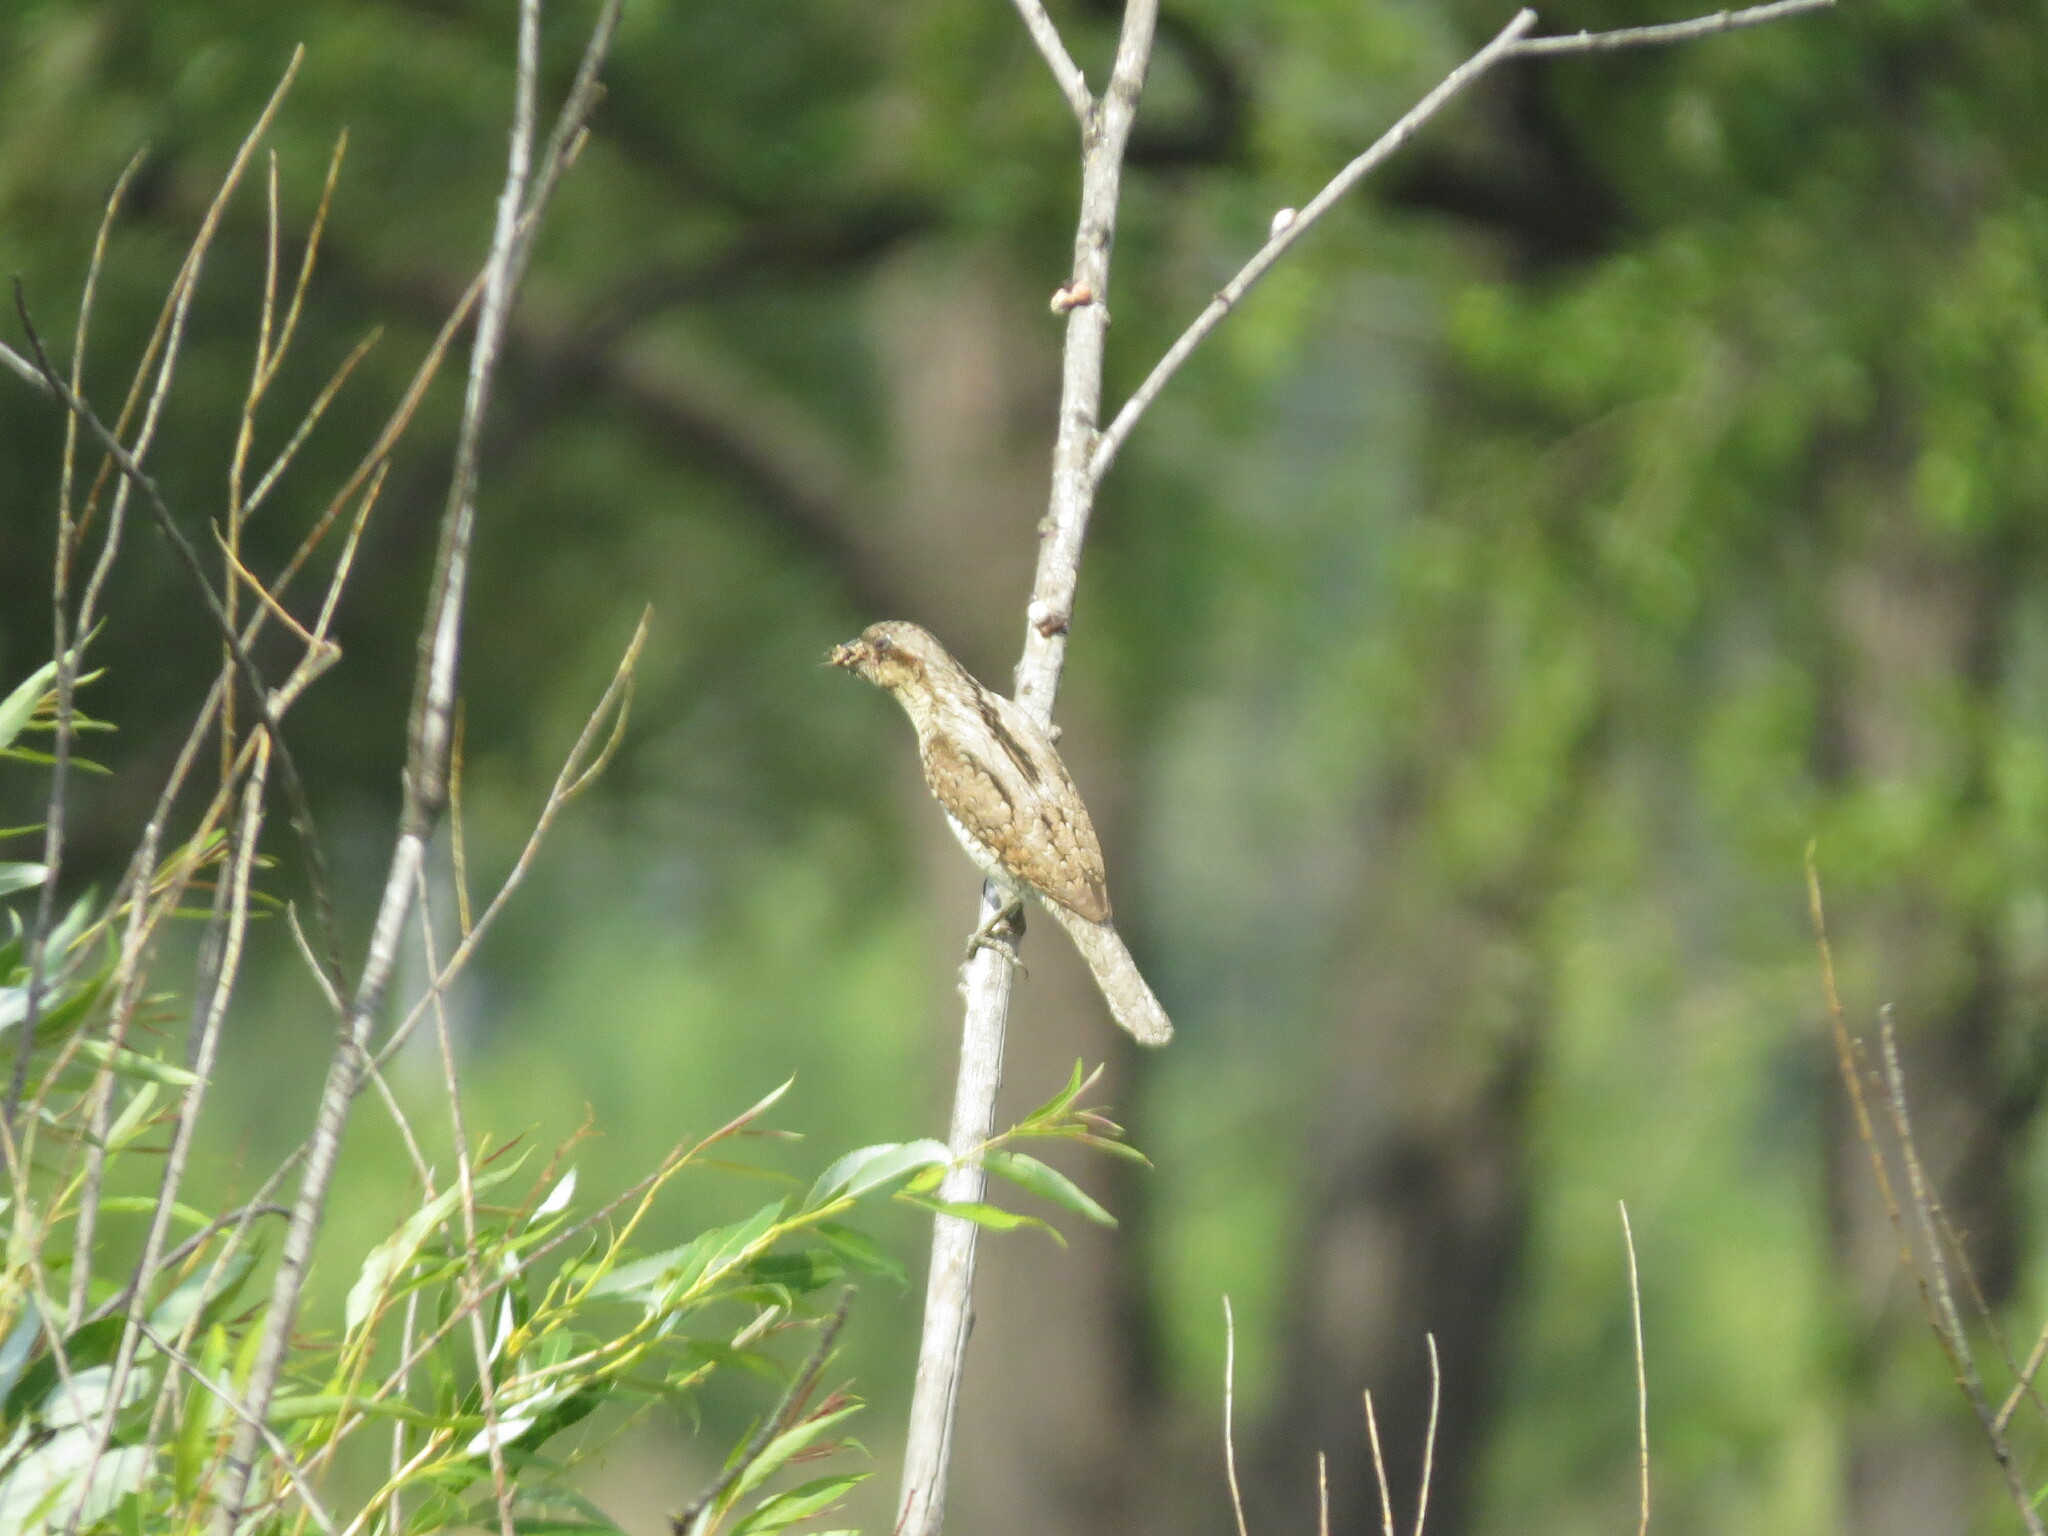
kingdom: Animalia
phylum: Chordata
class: Aves
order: Piciformes
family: Picidae
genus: Jynx
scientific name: Jynx torquilla
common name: Eurasian wryneck
